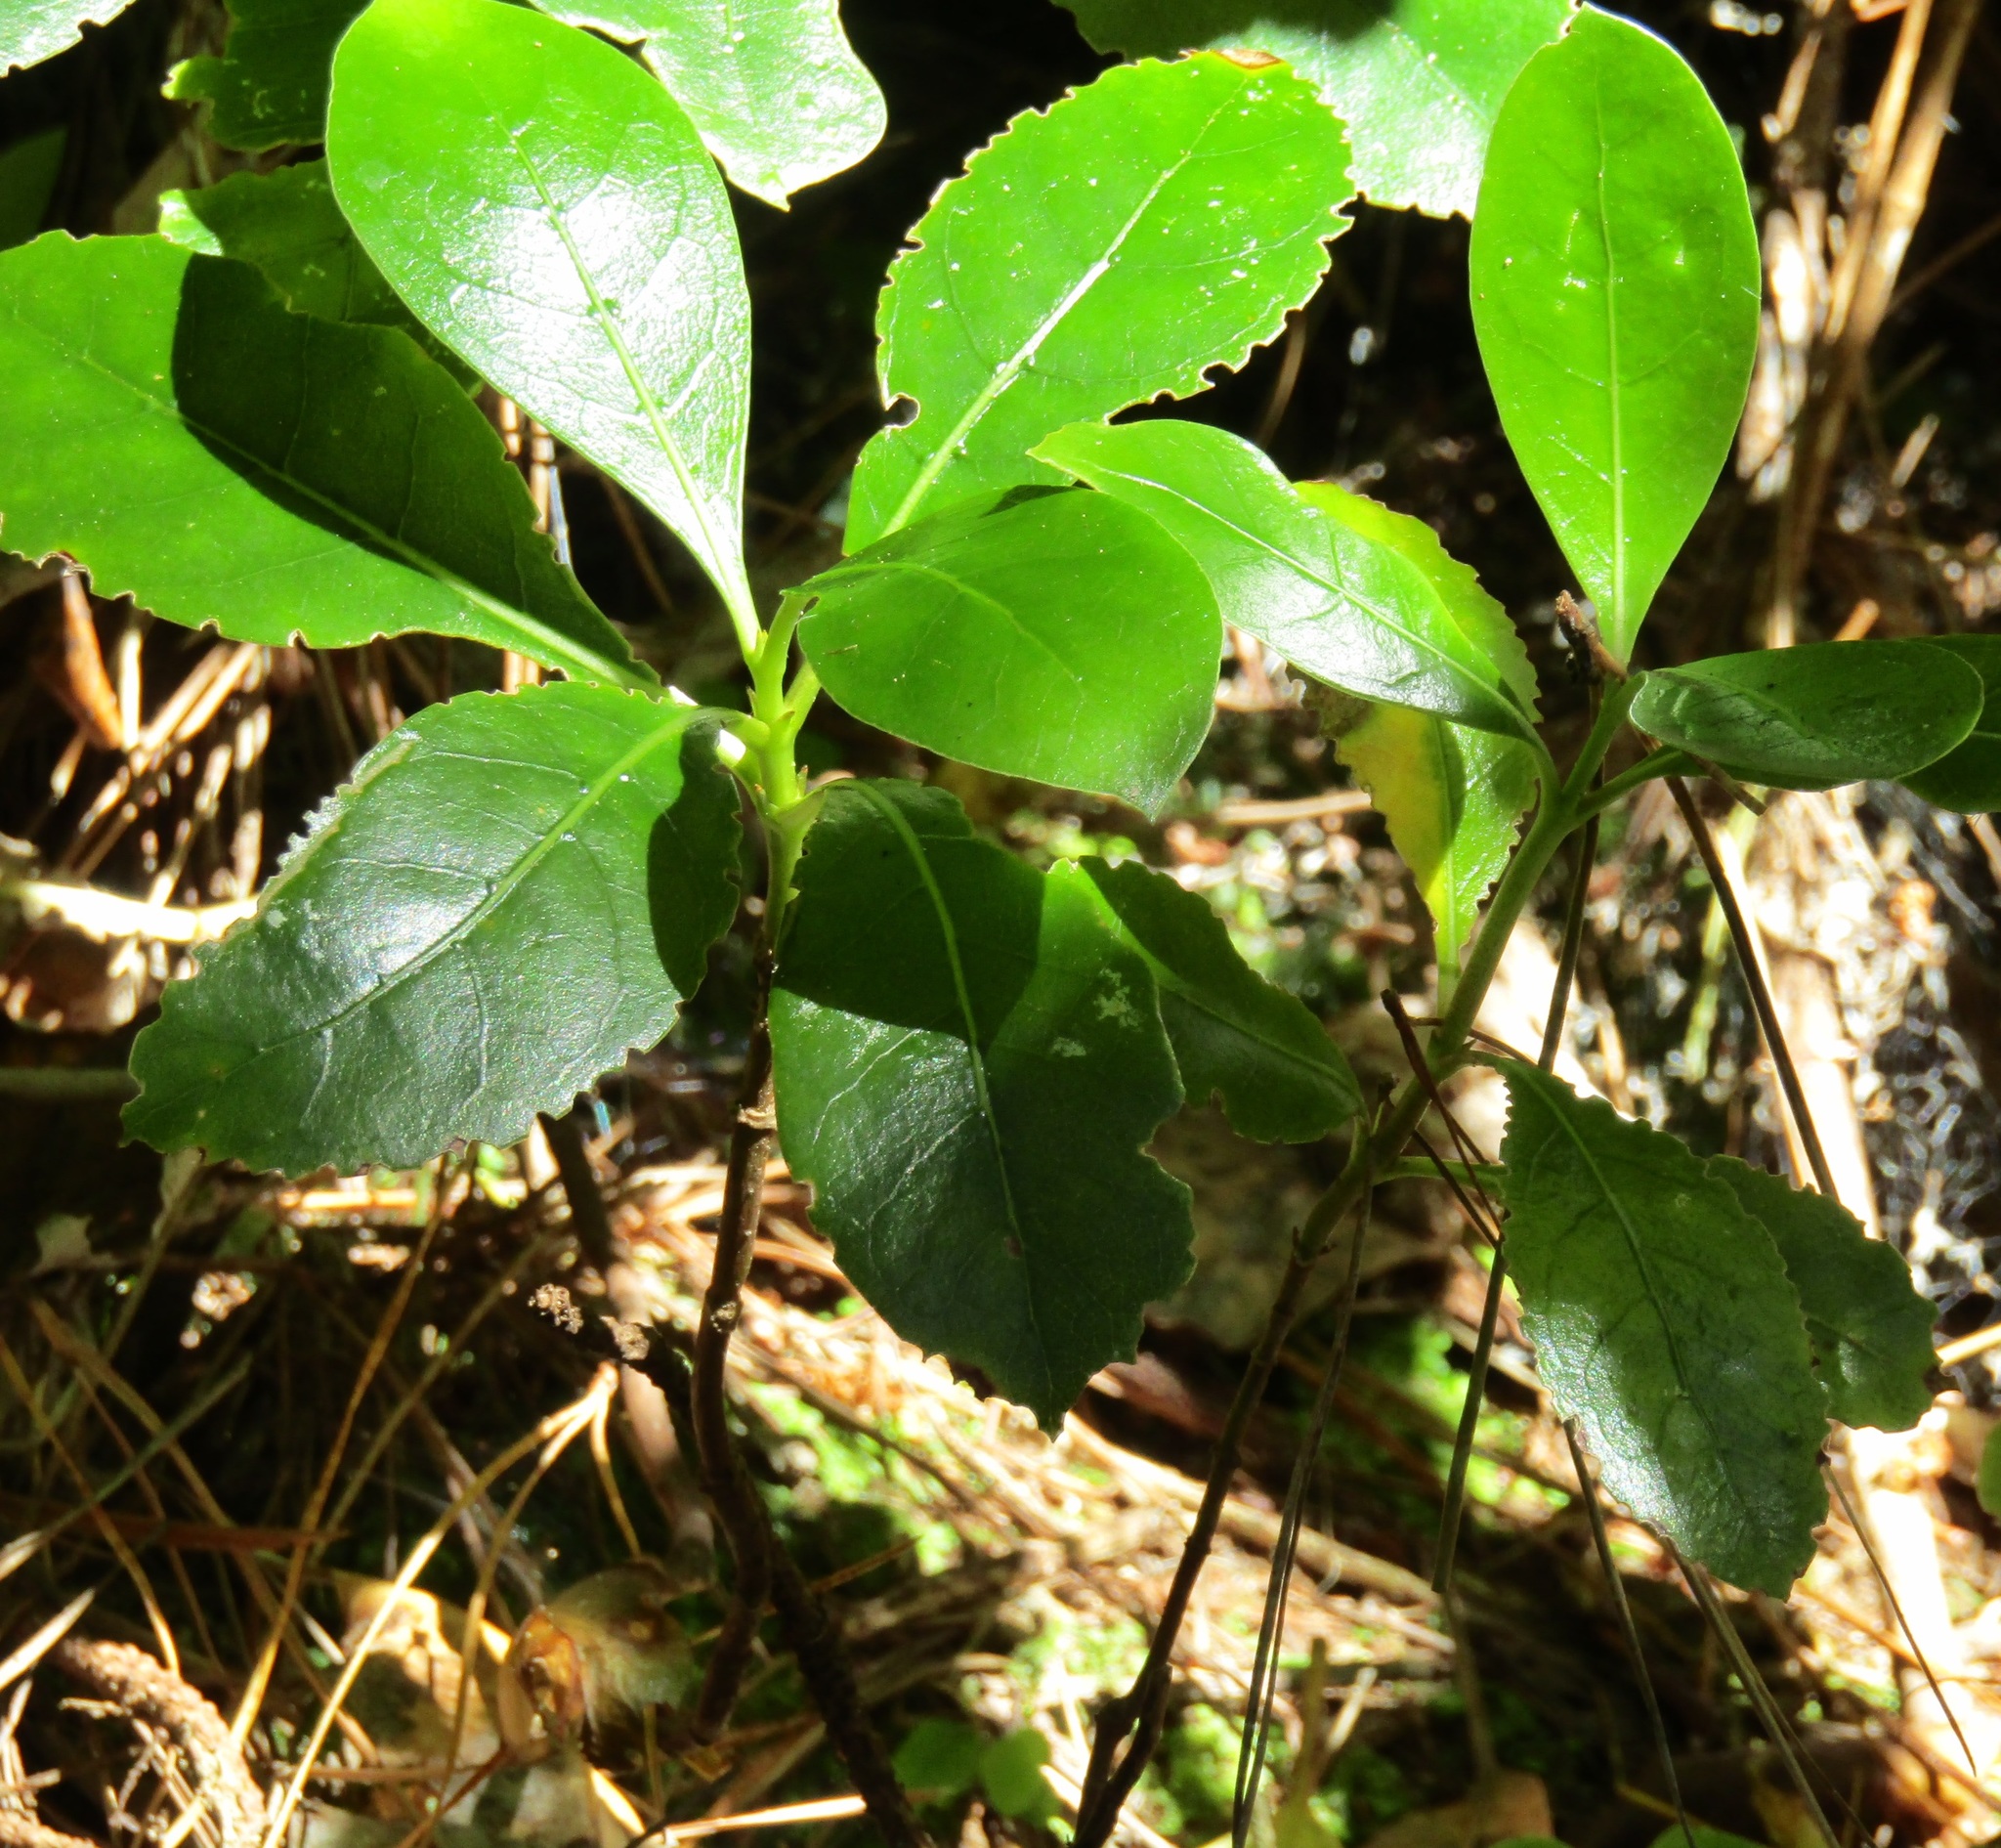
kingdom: Plantae
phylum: Tracheophyta
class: Magnoliopsida
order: Gentianales
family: Rubiaceae
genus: Coprosma
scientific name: Coprosma robusta
